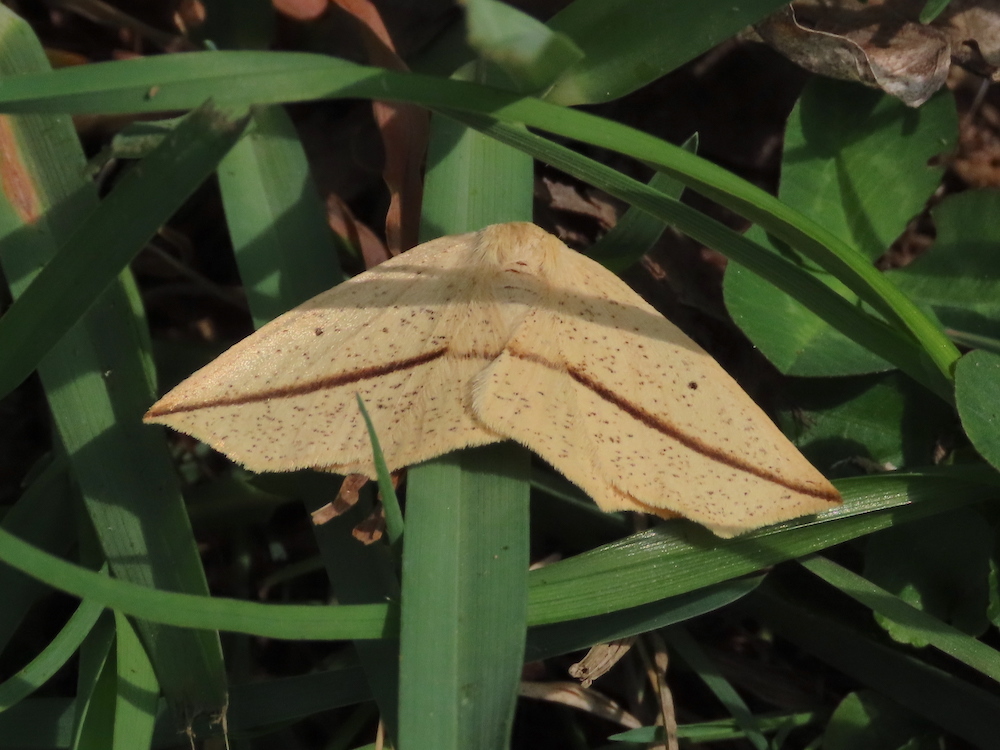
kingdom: Animalia
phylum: Arthropoda
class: Insecta
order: Lepidoptera
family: Geometridae
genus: Tetracis
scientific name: Tetracis crocallata
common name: Yellow slant-line
